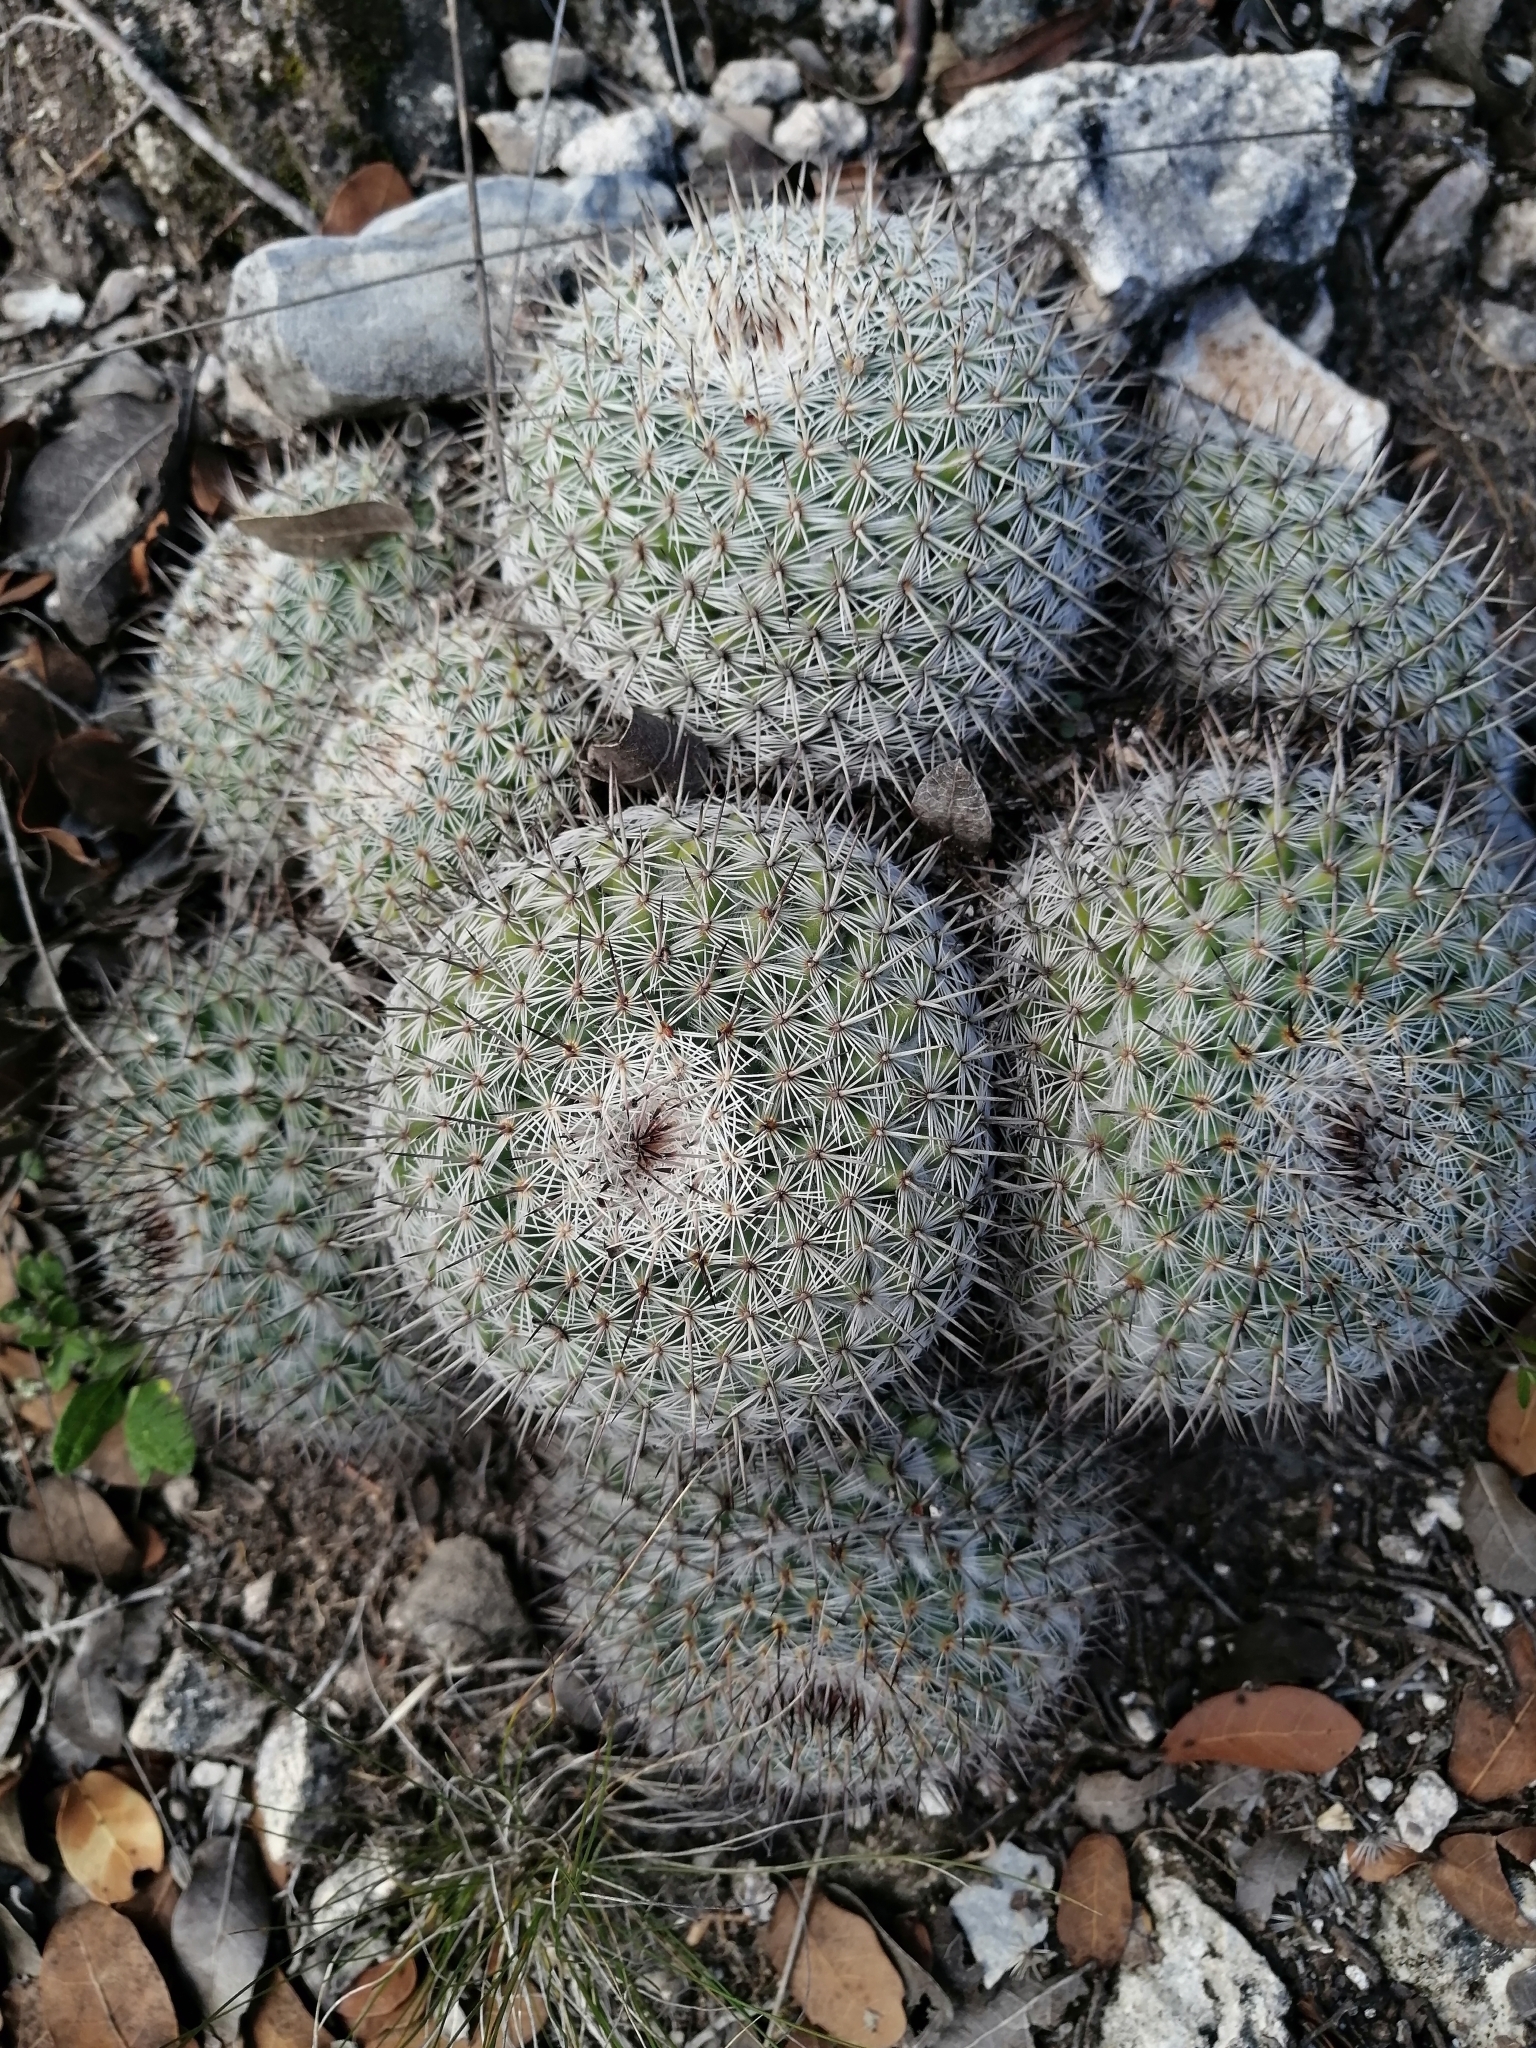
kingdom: Plantae
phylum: Tracheophyta
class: Magnoliopsida
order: Caryophyllales
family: Cactaceae
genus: Mammillaria
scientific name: Mammillaria haageana
